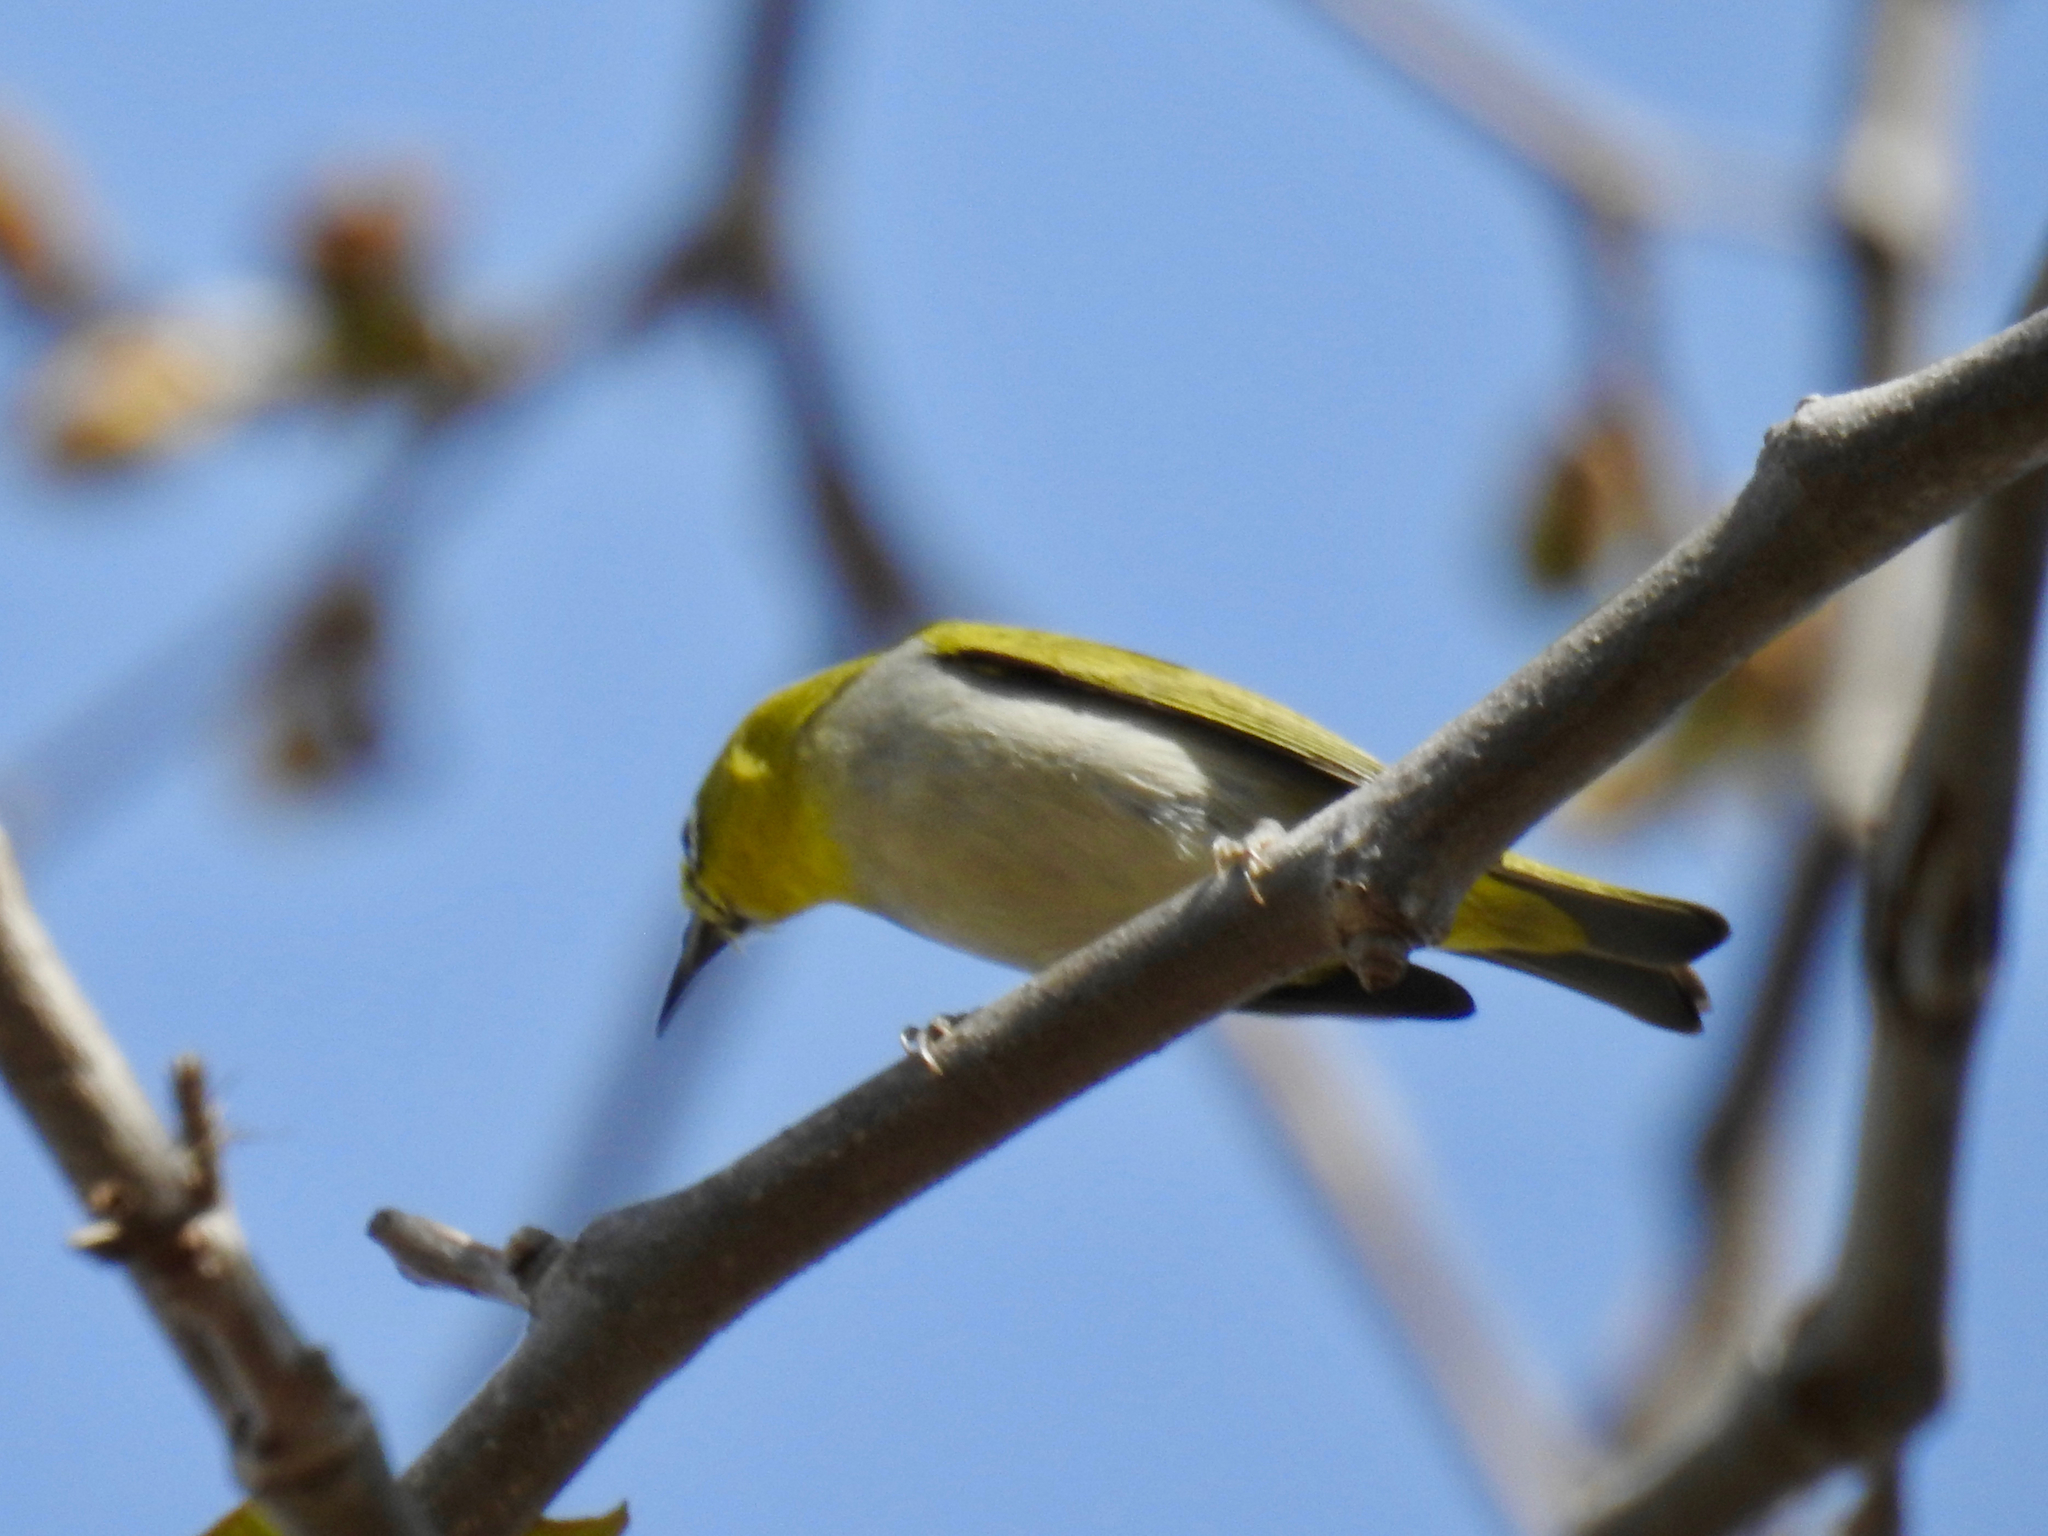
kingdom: Animalia
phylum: Chordata
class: Aves
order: Passeriformes
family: Zosteropidae
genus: Zosterops
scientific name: Zosterops simplex
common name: Swinhoe's white-eye
